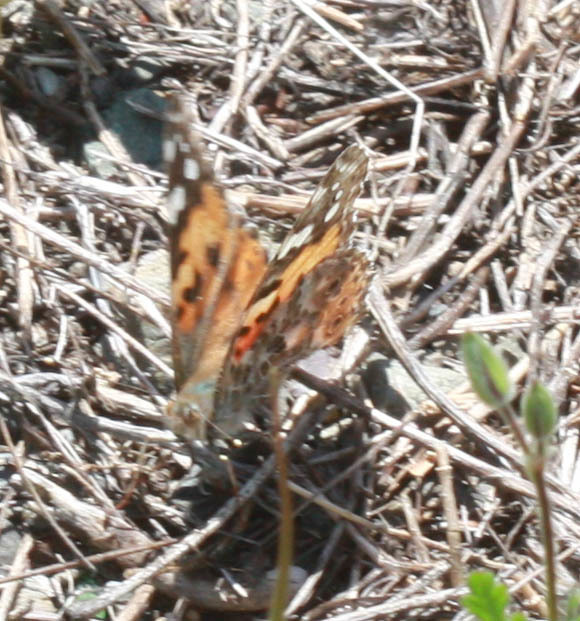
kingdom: Animalia
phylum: Arthropoda
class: Insecta
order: Lepidoptera
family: Nymphalidae
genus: Vanessa
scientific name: Vanessa cardui
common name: Painted lady
